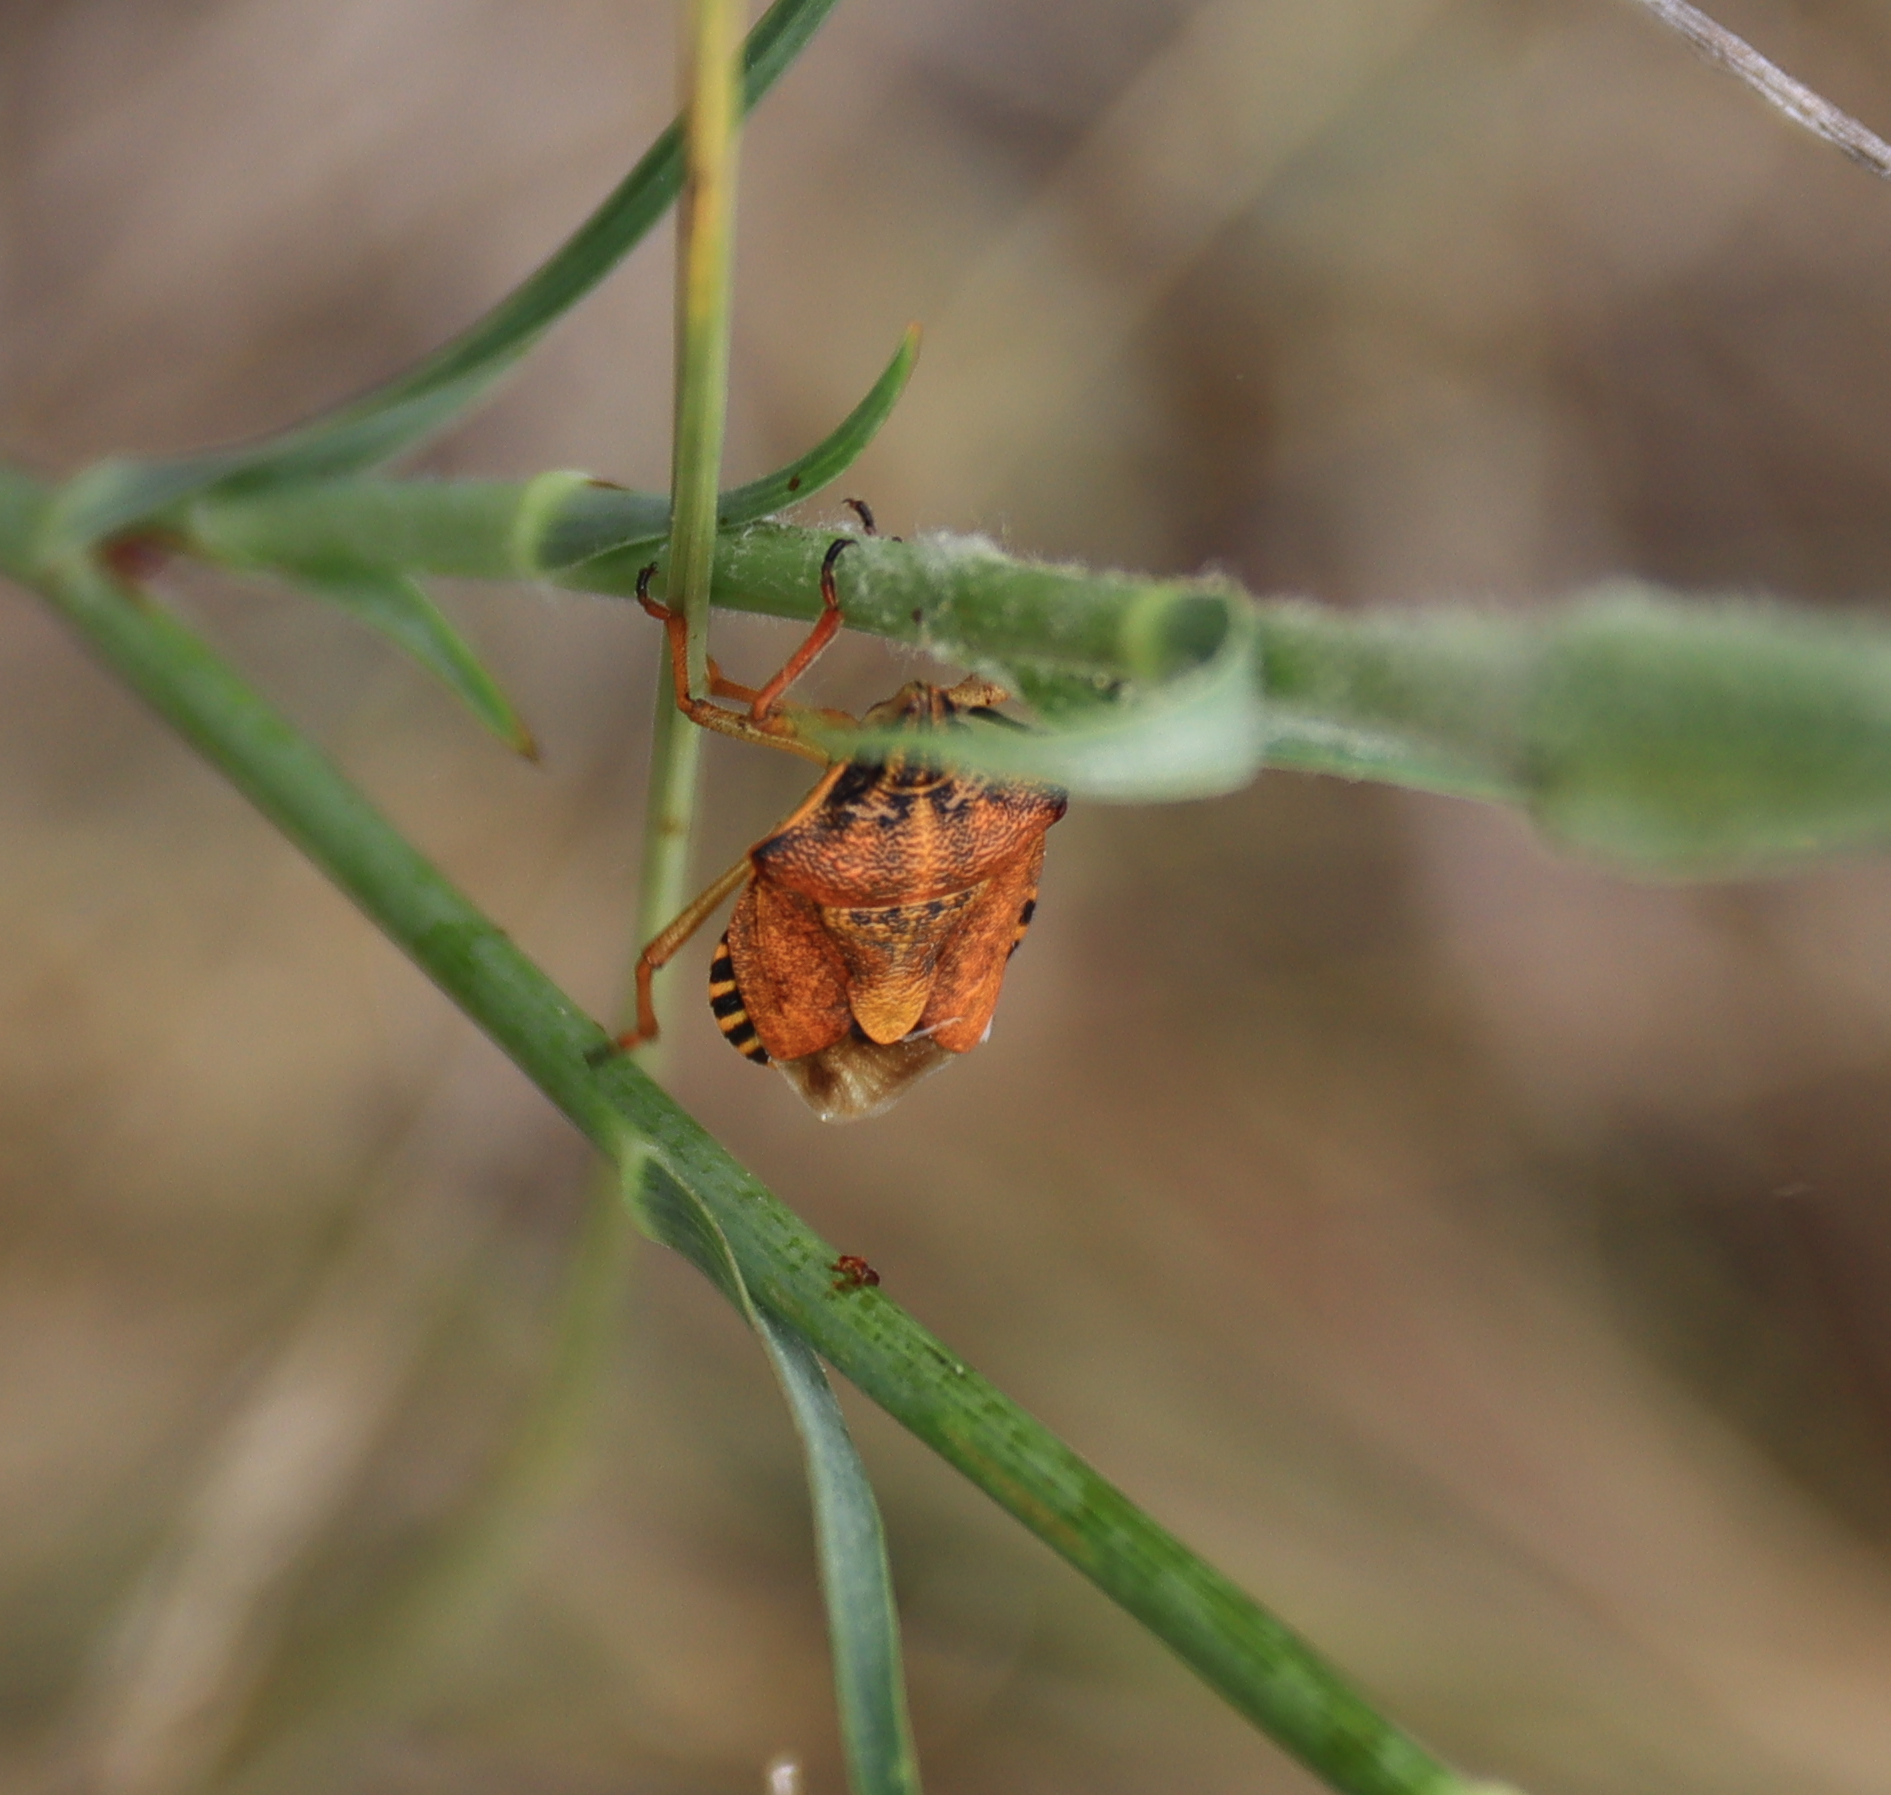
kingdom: Animalia
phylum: Arthropoda
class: Insecta
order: Hemiptera
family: Pentatomidae
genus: Carpocoris
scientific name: Carpocoris purpureipennis
